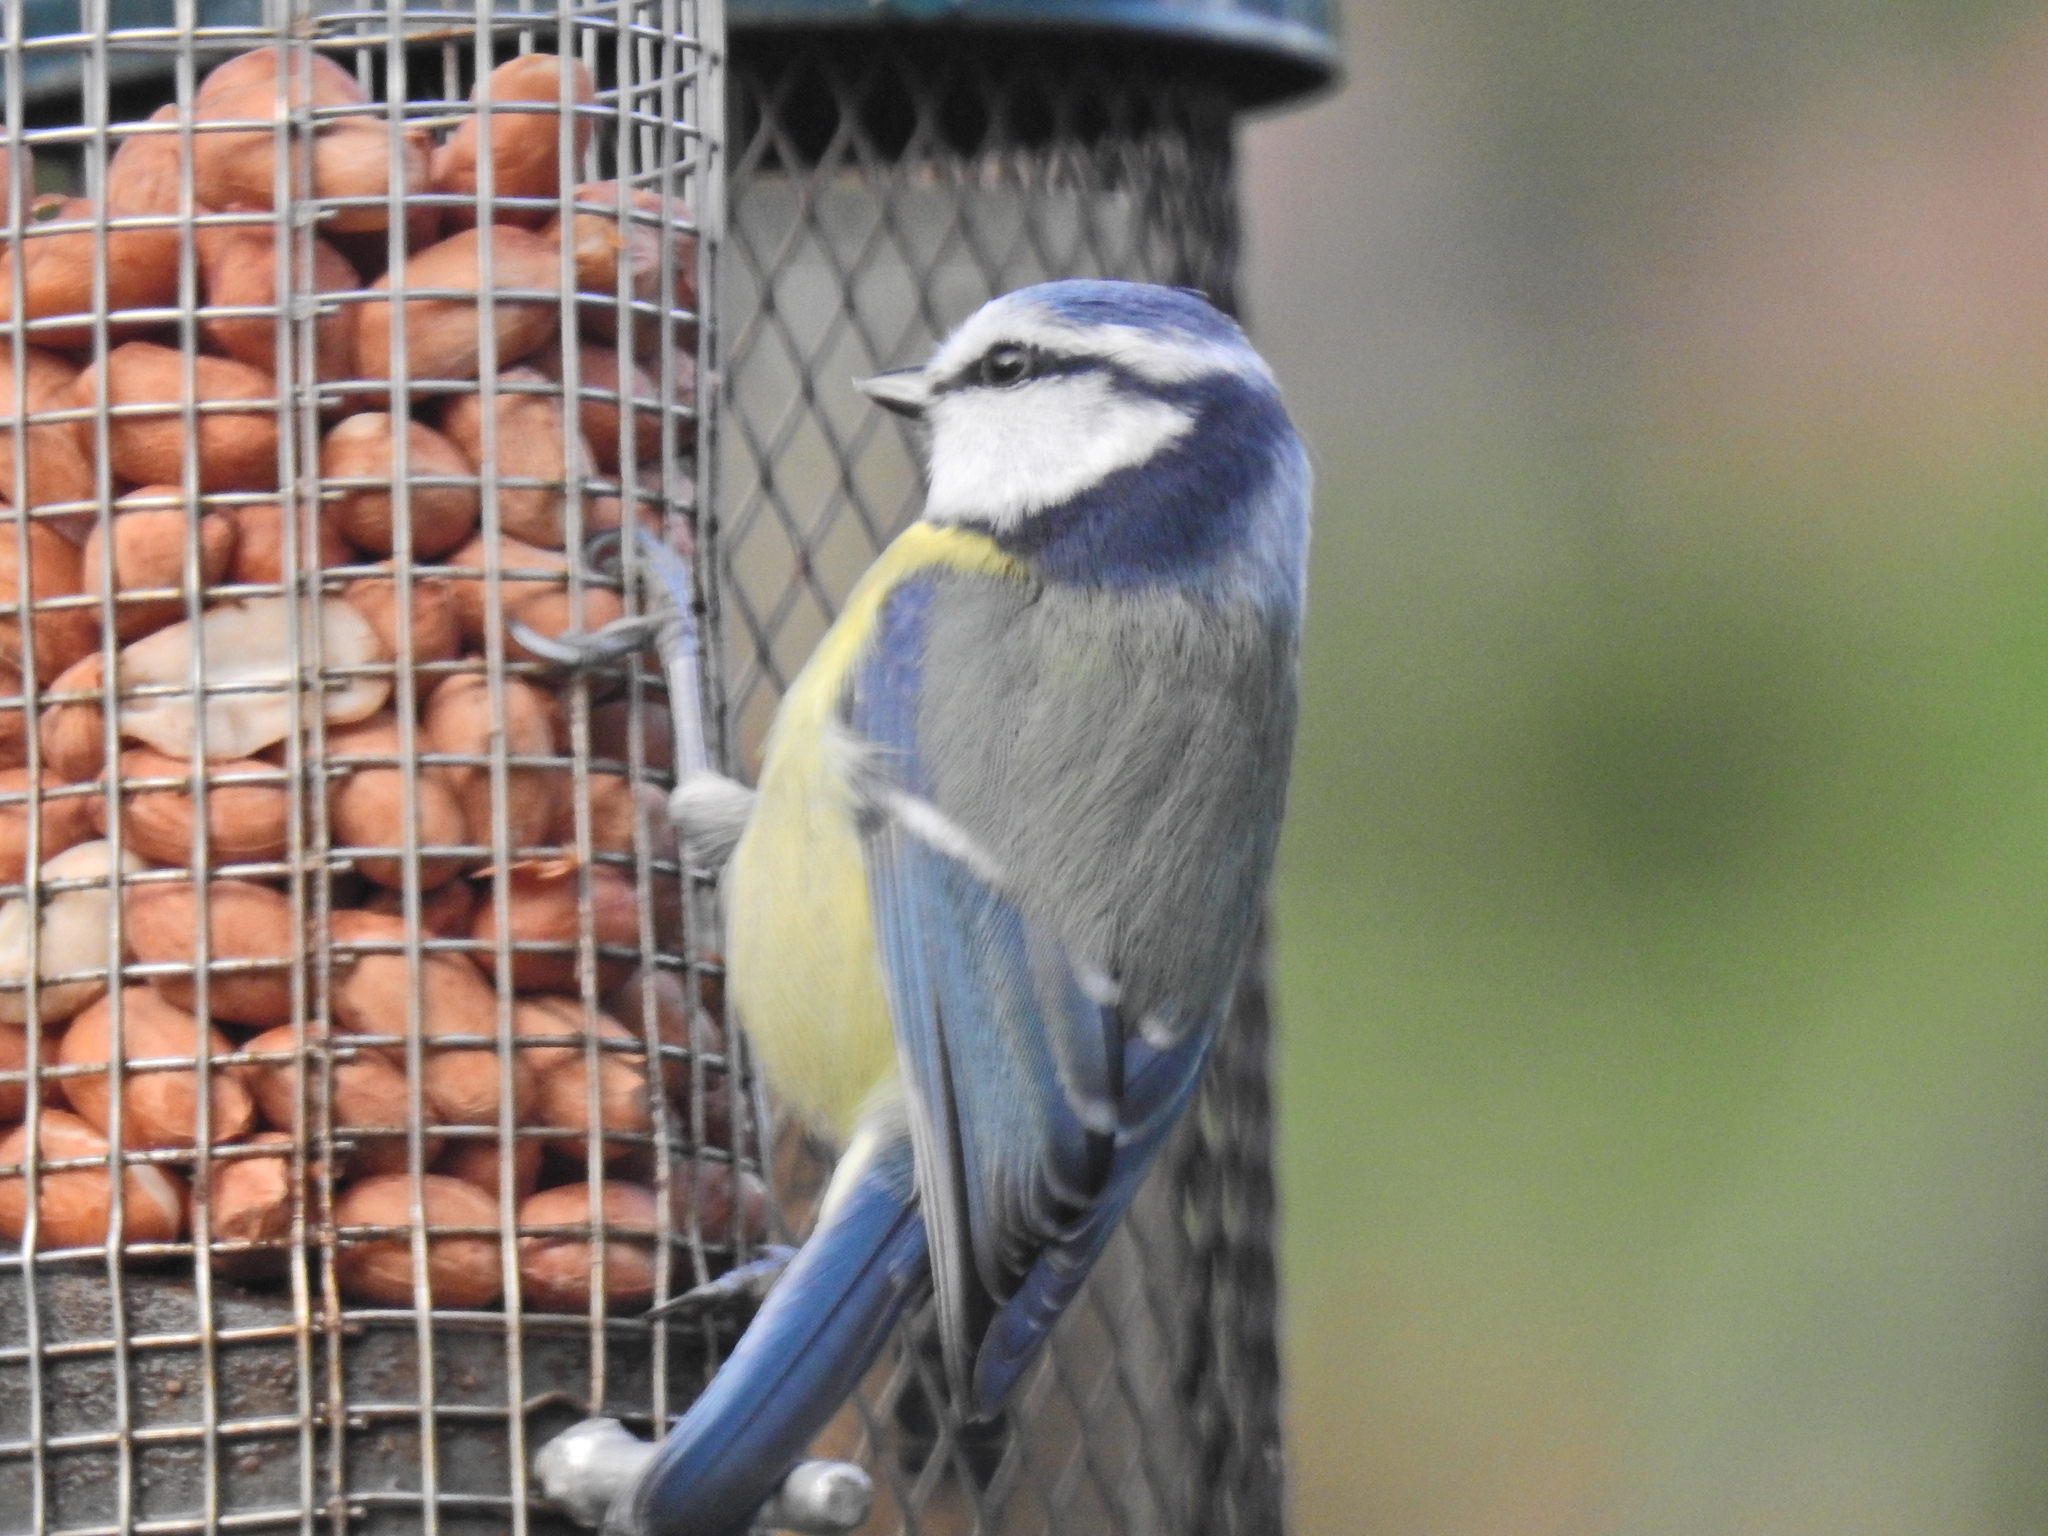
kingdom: Animalia
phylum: Chordata
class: Aves
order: Passeriformes
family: Paridae
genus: Cyanistes
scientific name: Cyanistes caeruleus
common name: Eurasian blue tit
